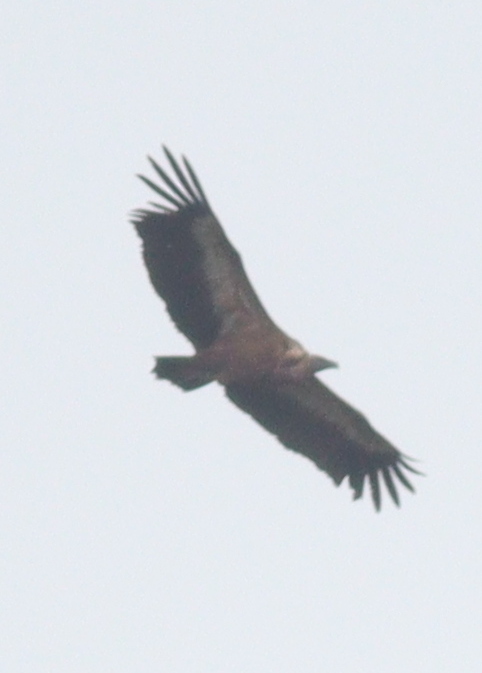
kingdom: Animalia
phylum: Chordata
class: Aves
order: Accipitriformes
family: Accipitridae
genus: Gyps
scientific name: Gyps fulvus
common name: Griffon vulture
